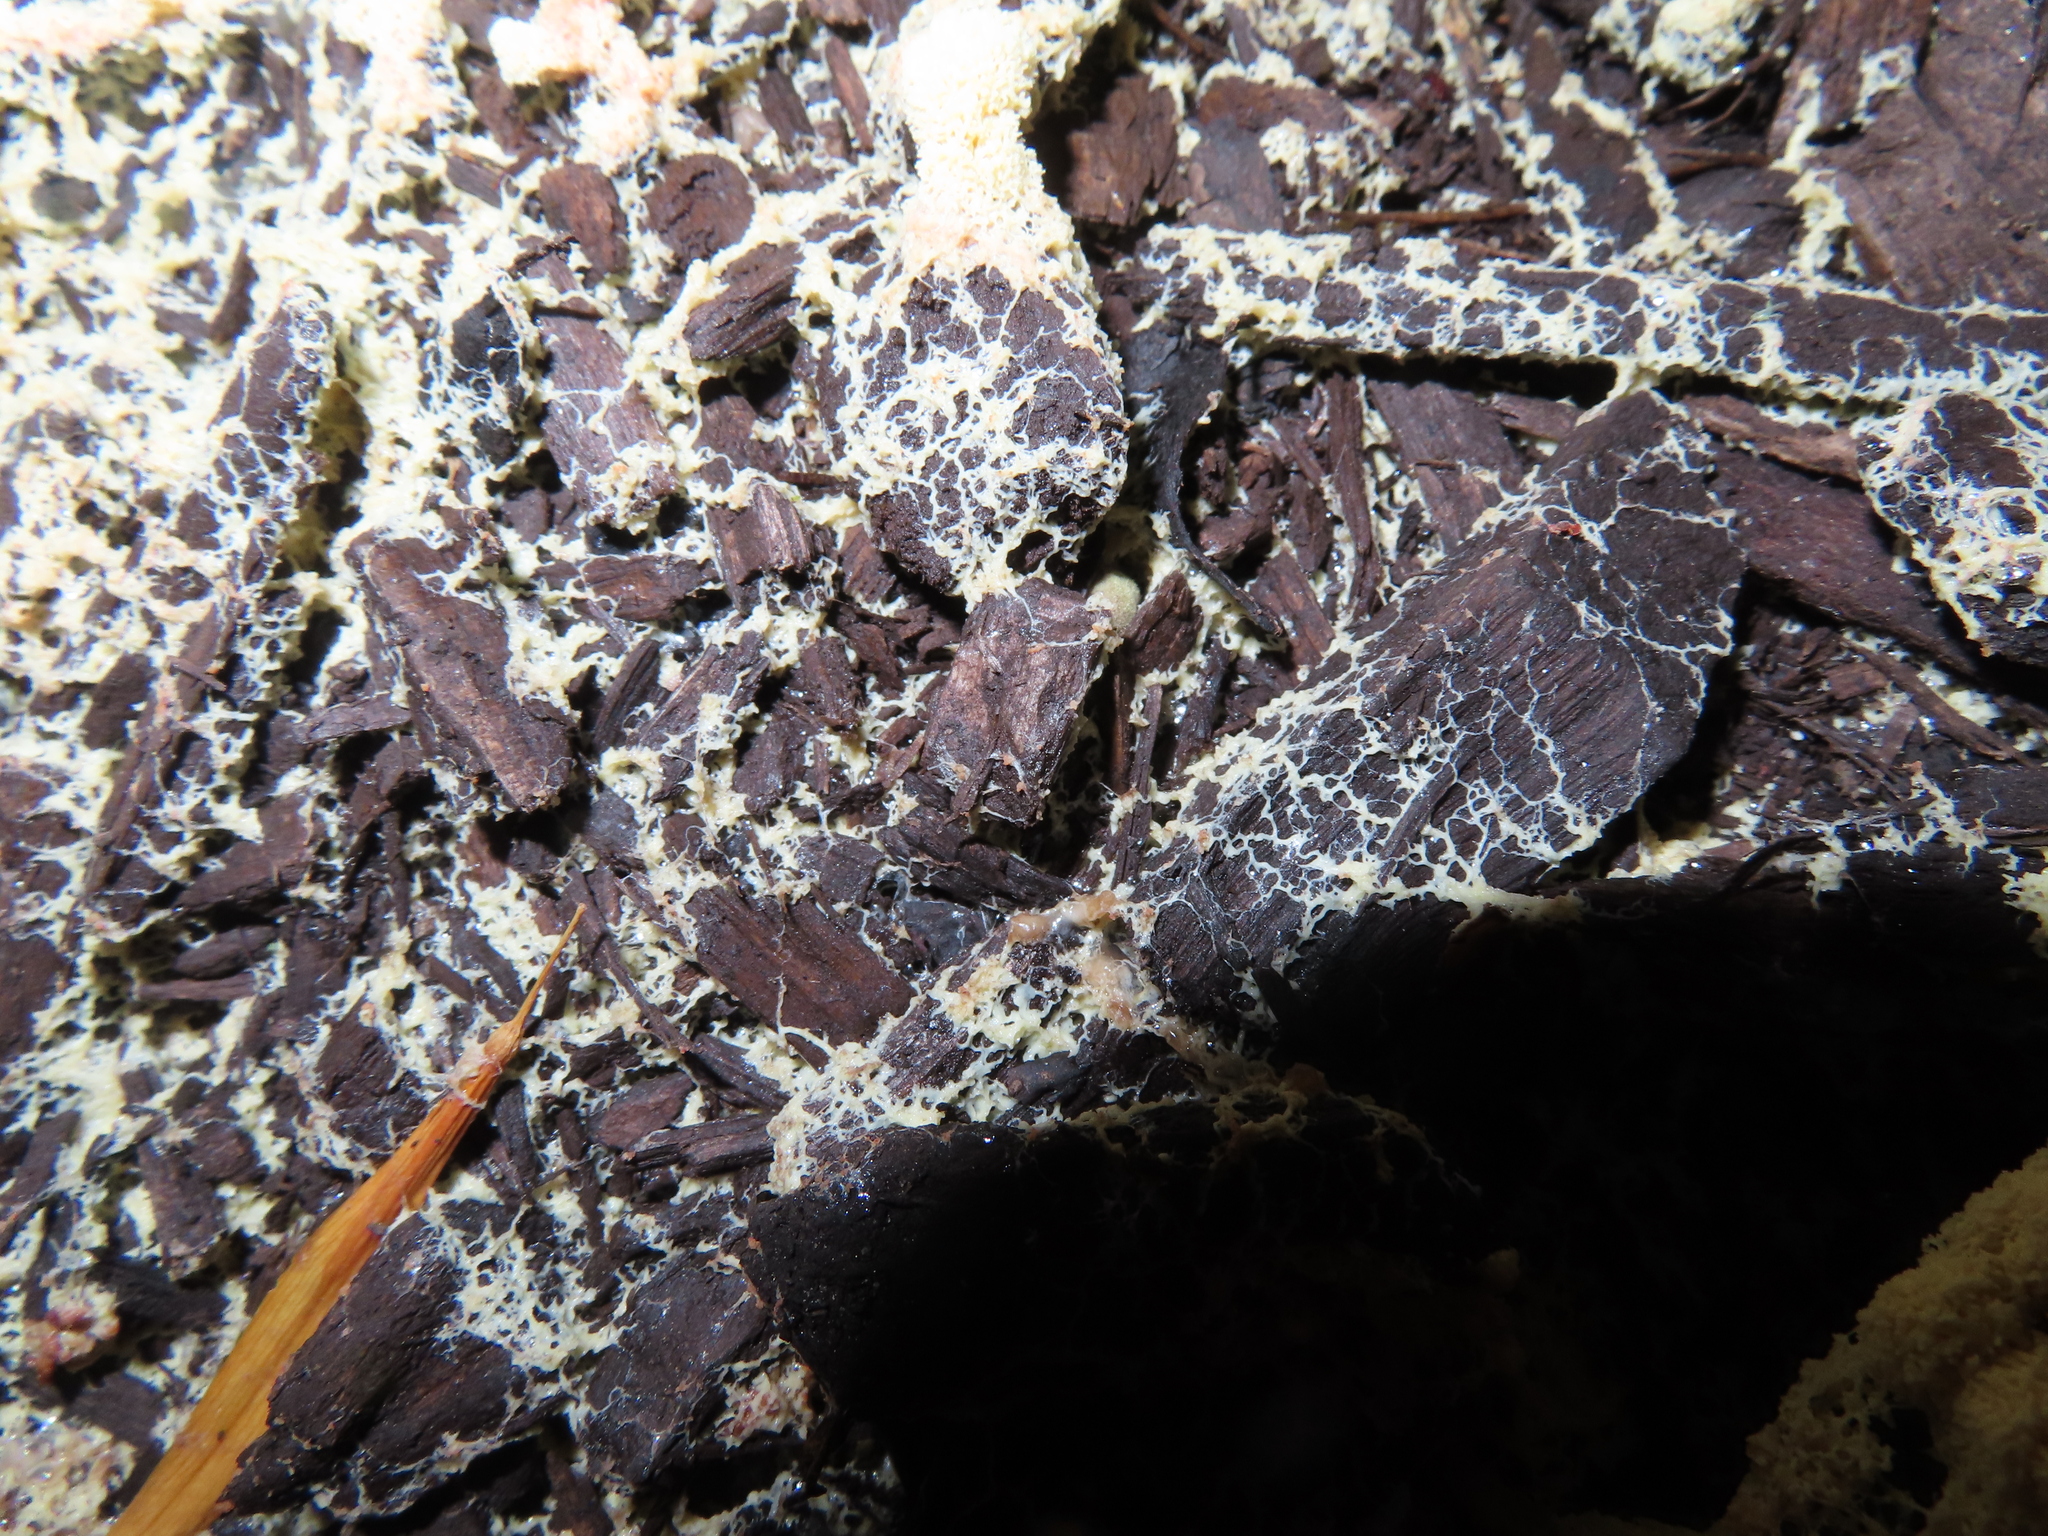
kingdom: Protozoa
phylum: Mycetozoa
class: Myxomycetes
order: Physarales
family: Physaraceae
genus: Fuligo
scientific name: Fuligo septica
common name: Dog vomit slime mold
